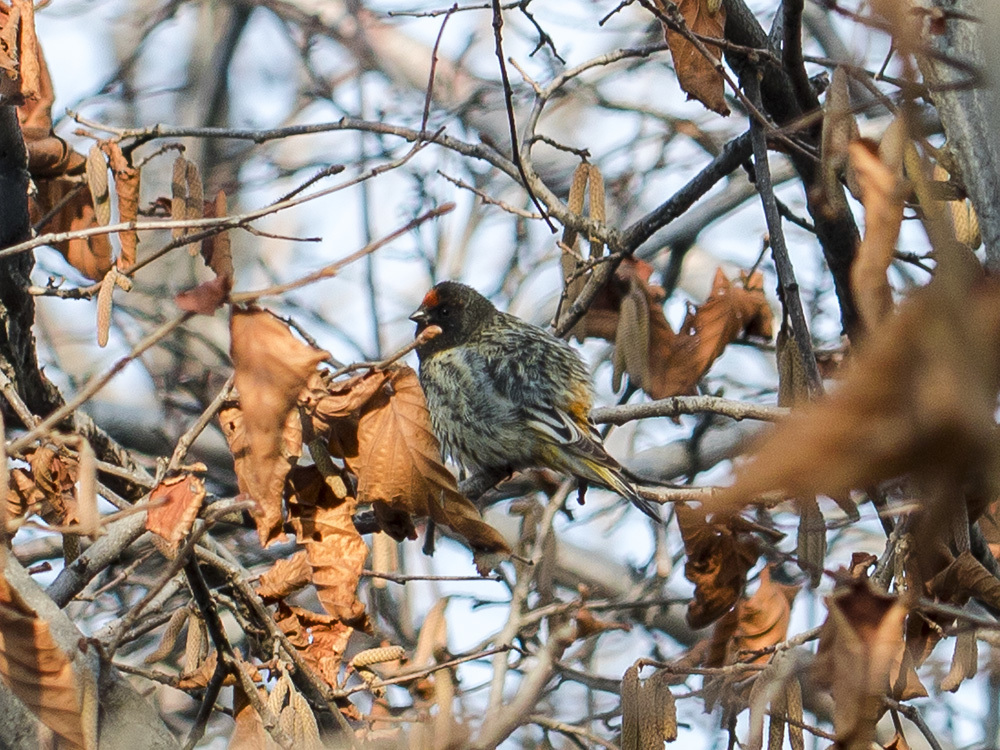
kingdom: Animalia
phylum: Chordata
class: Aves
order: Passeriformes
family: Fringillidae
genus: Serinus
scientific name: Serinus pusillus
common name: Red-fronted serin
